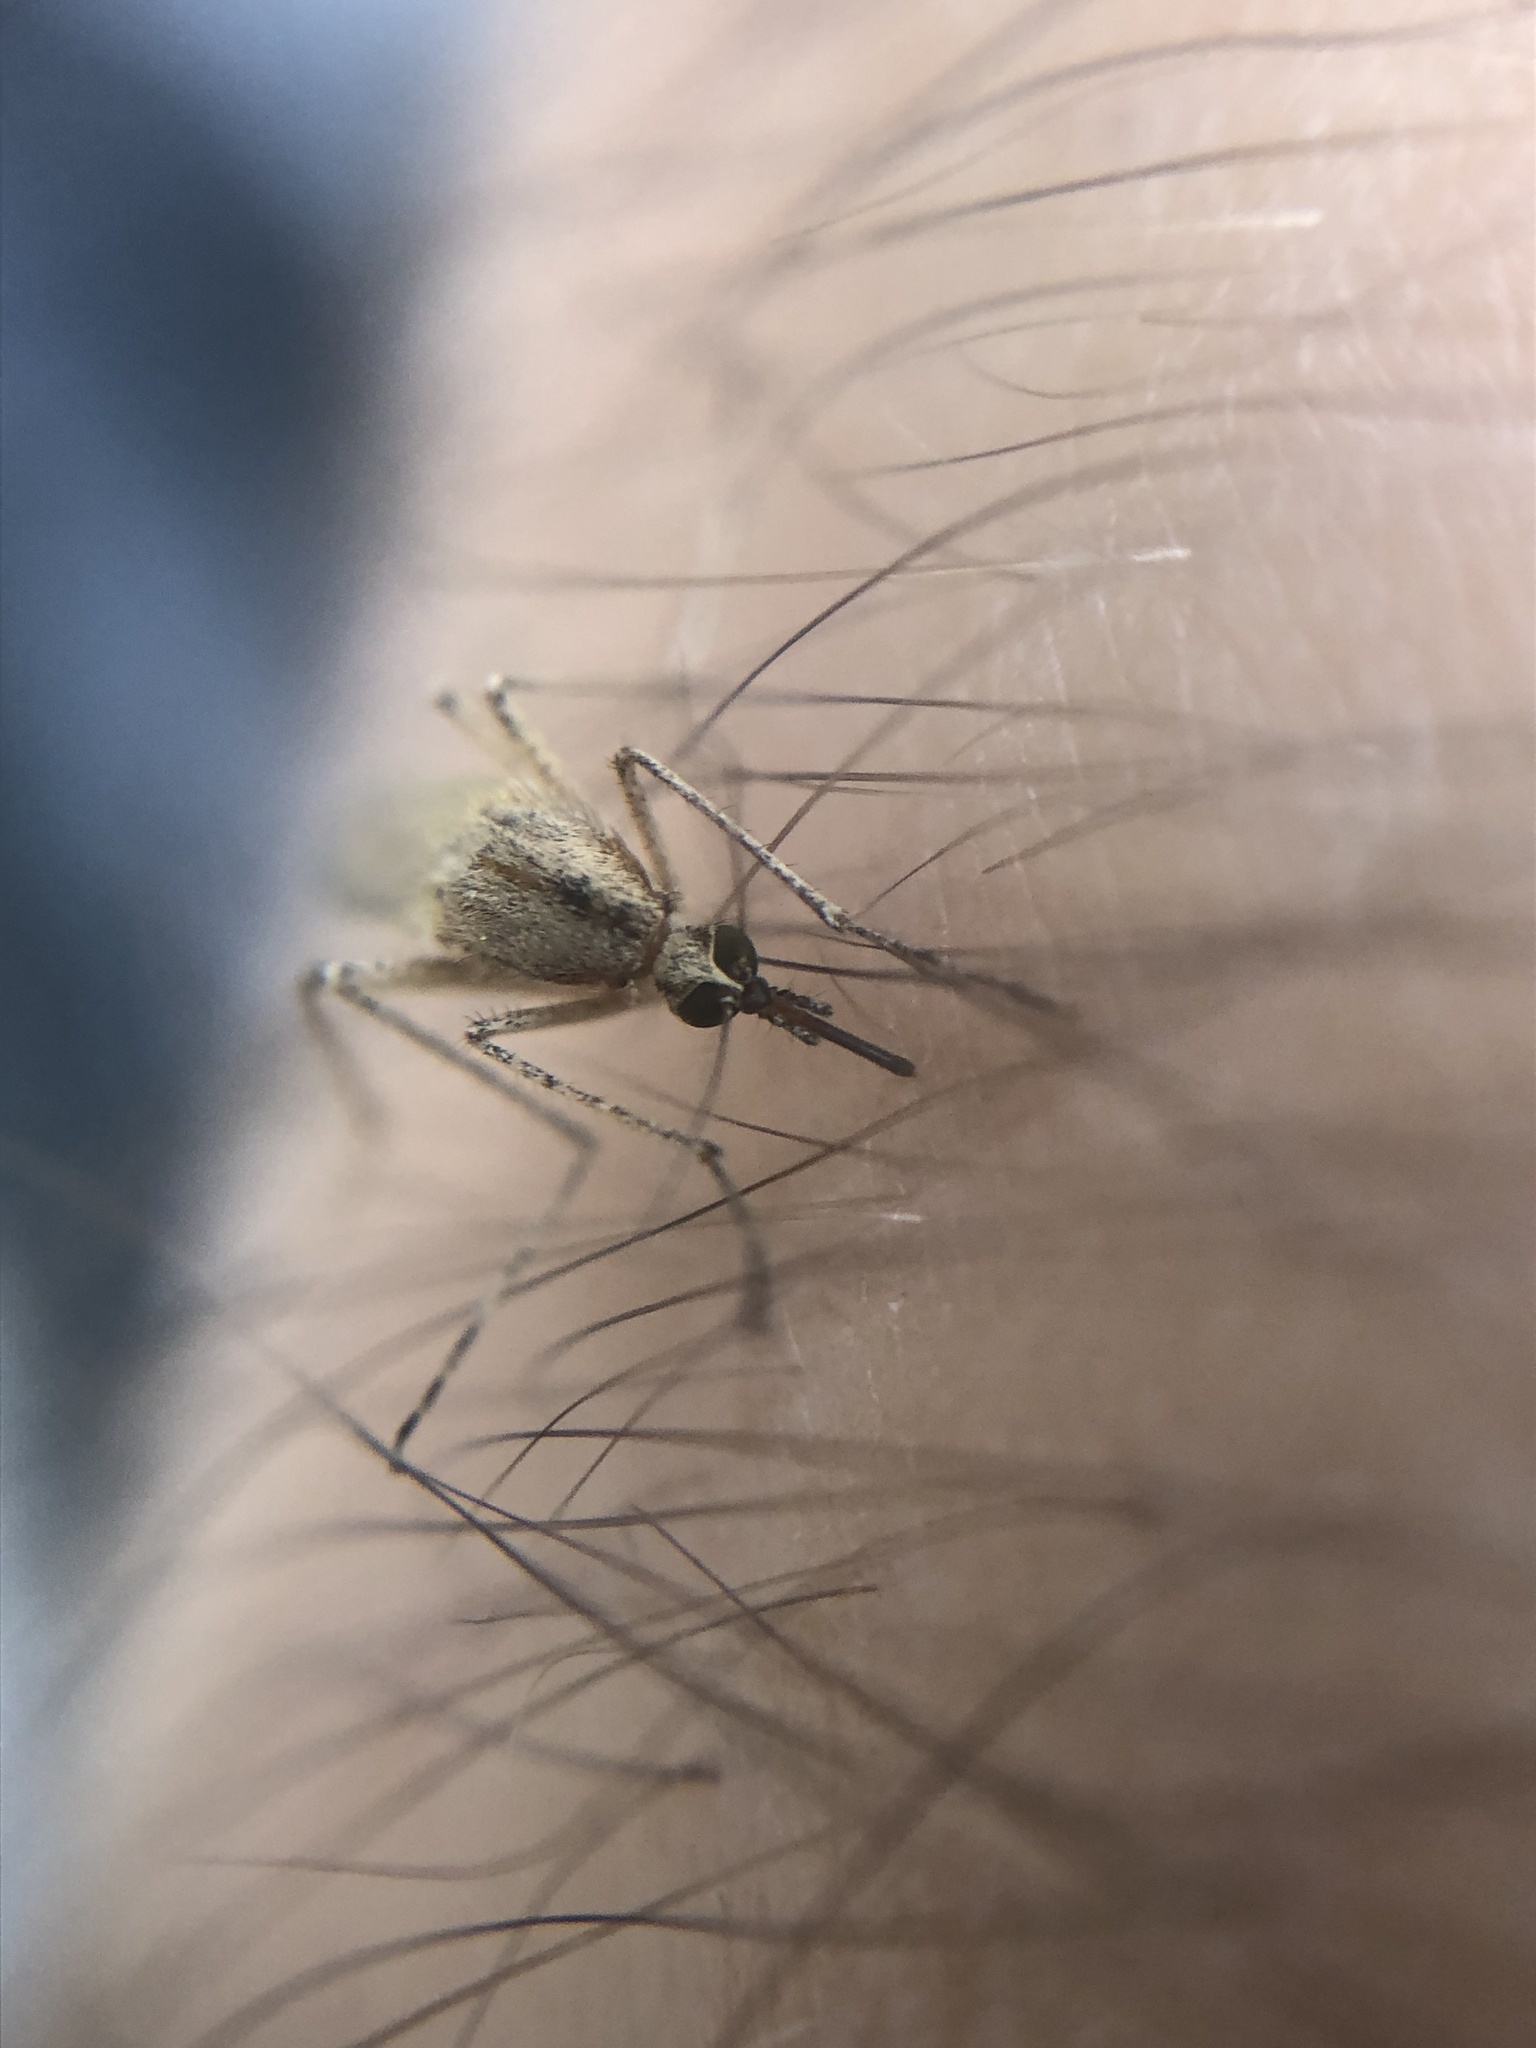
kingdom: Animalia
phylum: Arthropoda
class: Insecta
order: Diptera
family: Culicidae
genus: Aedes
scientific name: Aedes dorsalis
